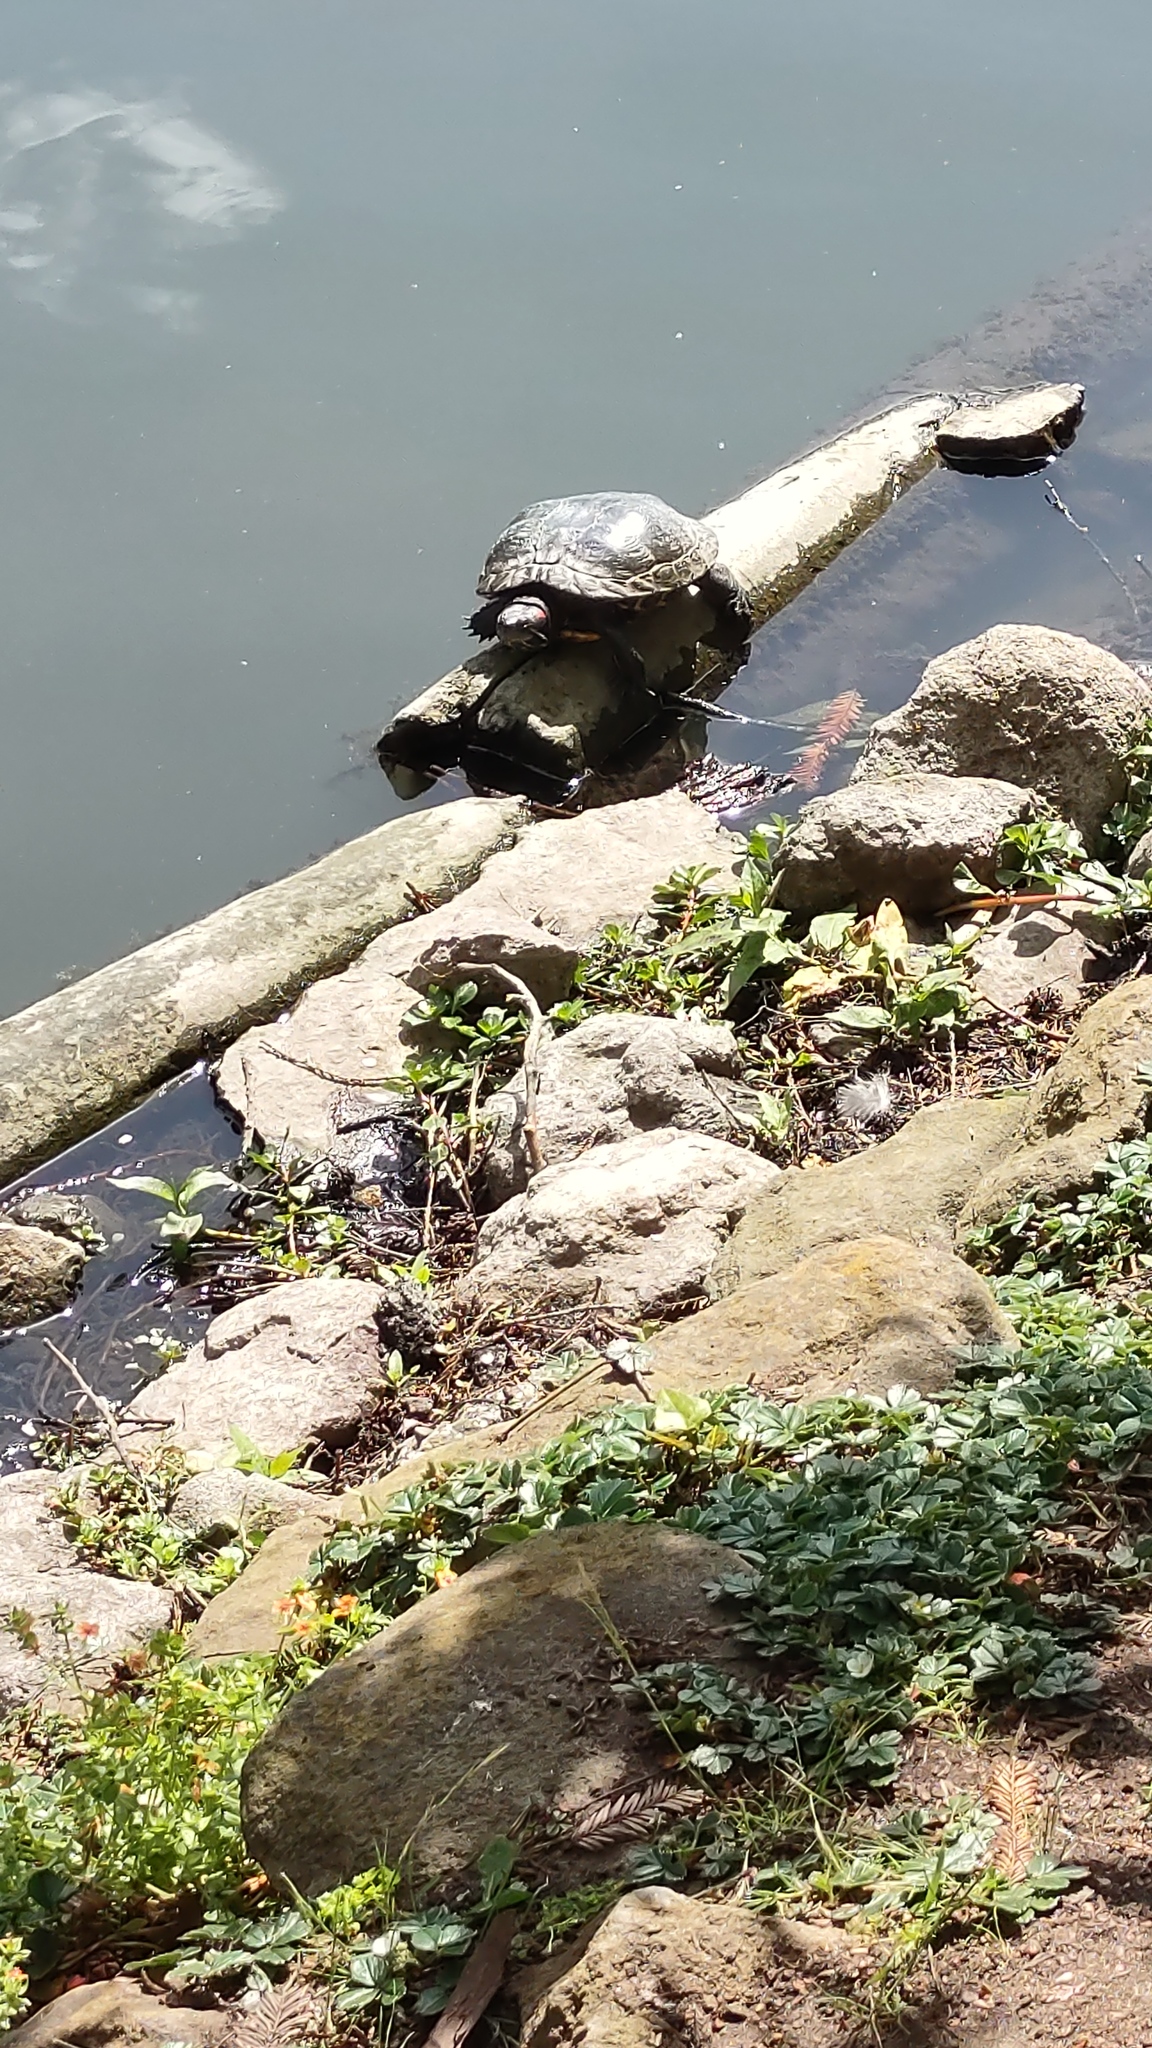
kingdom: Animalia
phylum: Chordata
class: Testudines
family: Emydidae
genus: Trachemys
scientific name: Trachemys scripta
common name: Slider
